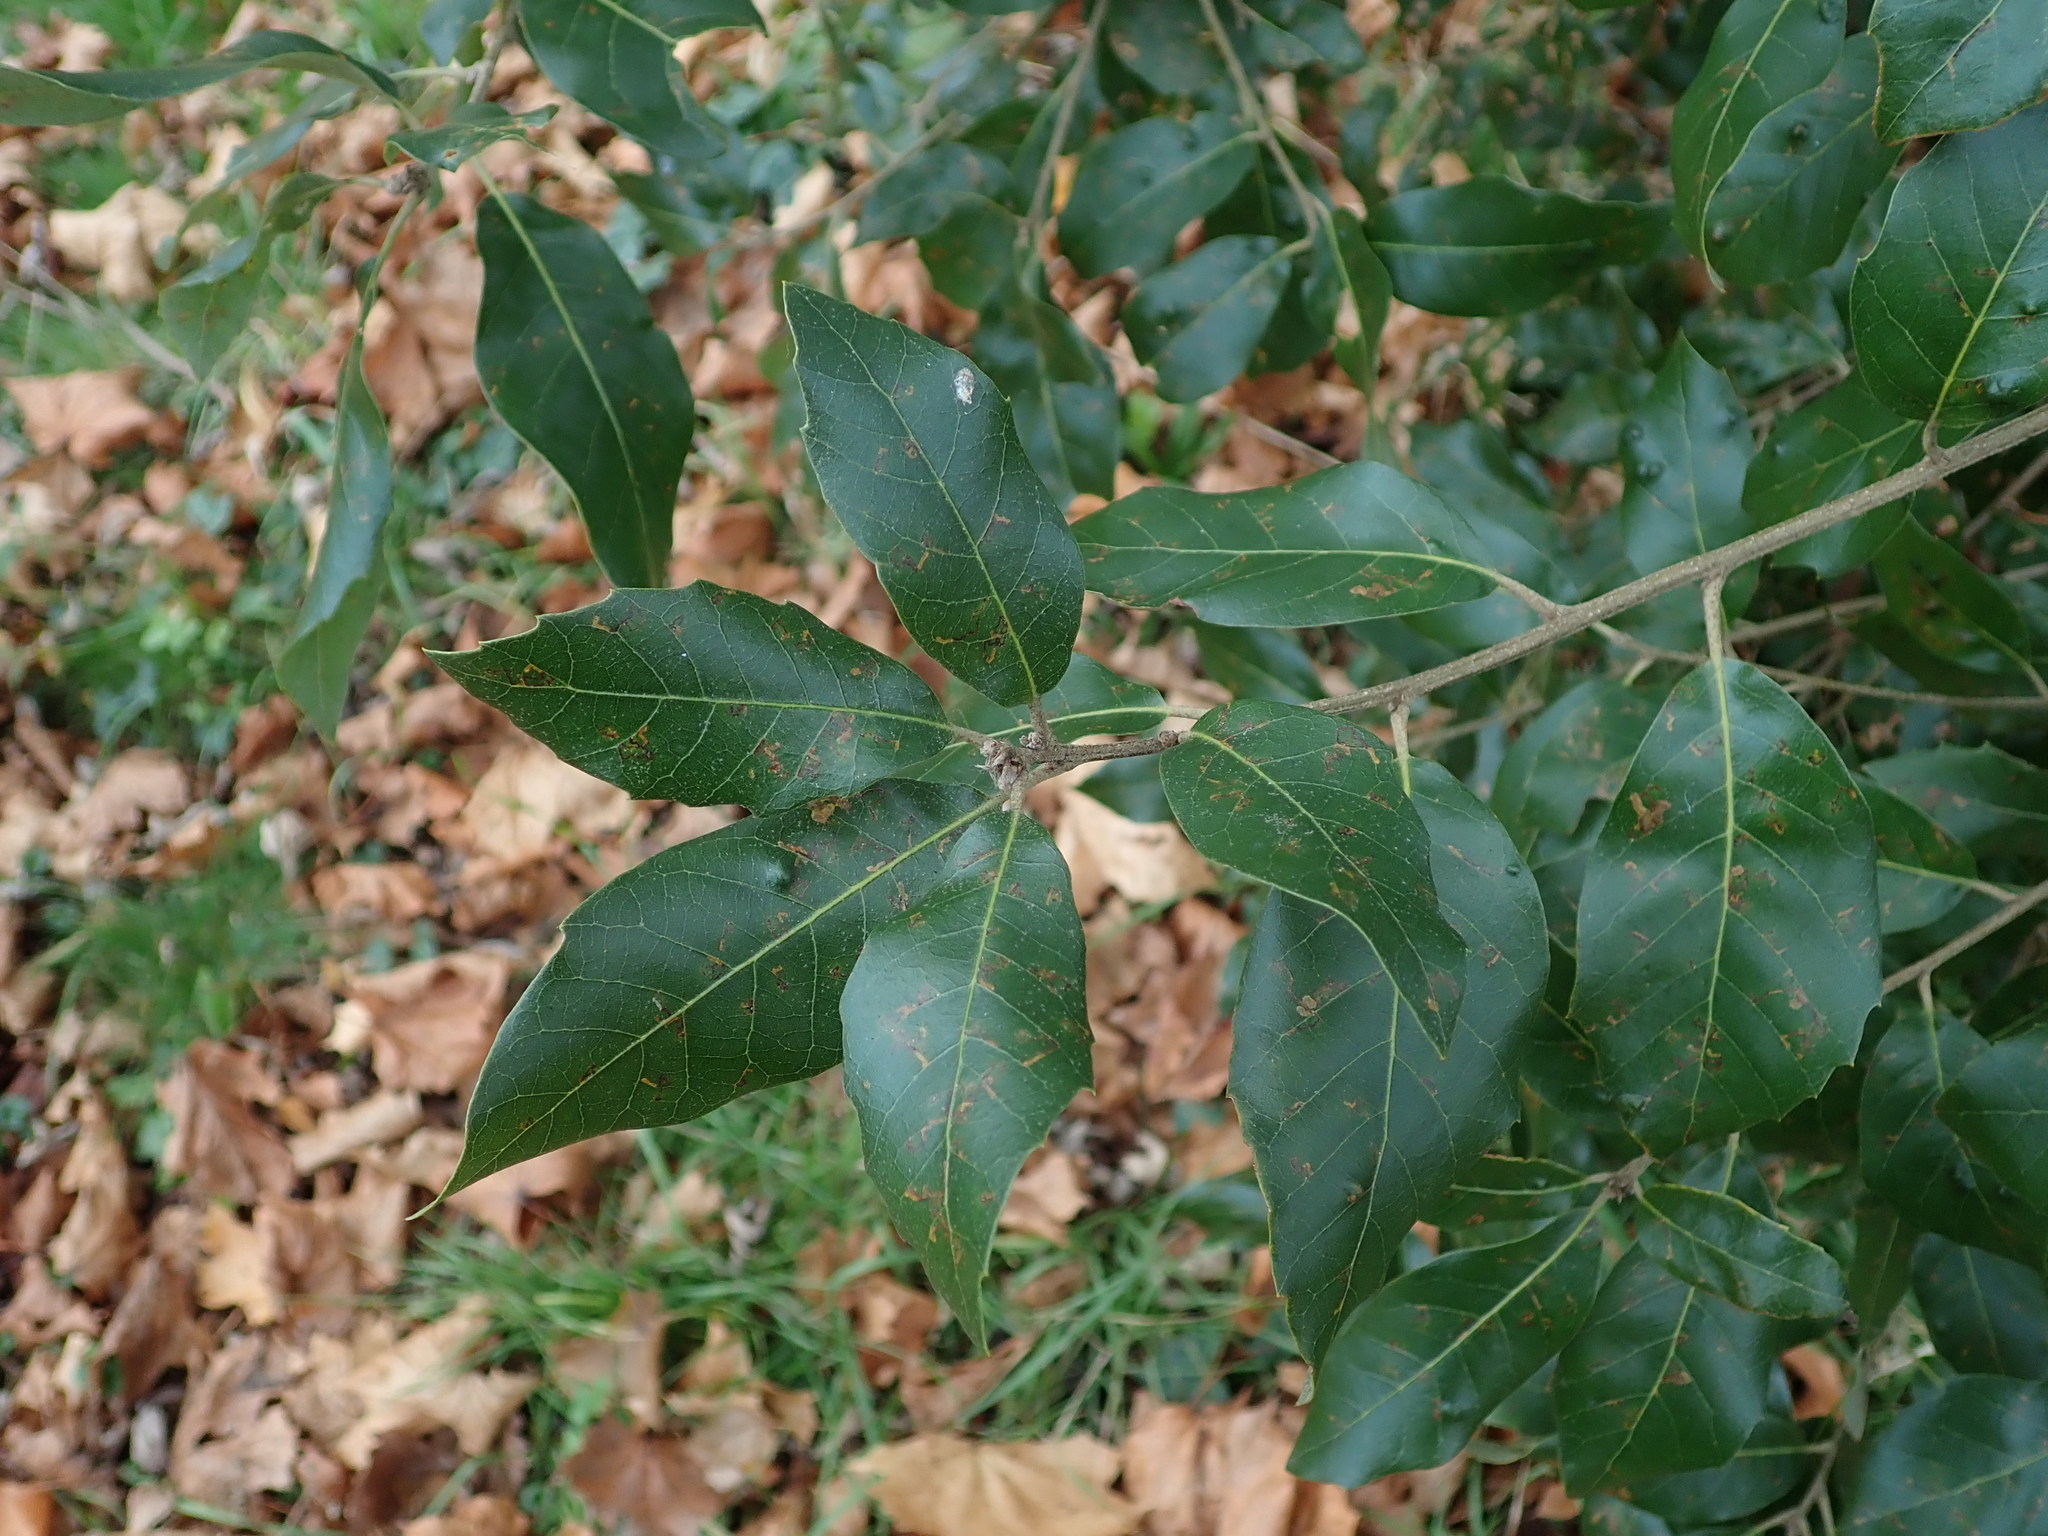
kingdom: Plantae
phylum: Tracheophyta
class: Magnoliopsida
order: Fagales
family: Fagaceae
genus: Quercus
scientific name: Quercus ilex
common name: Evergreen oak
